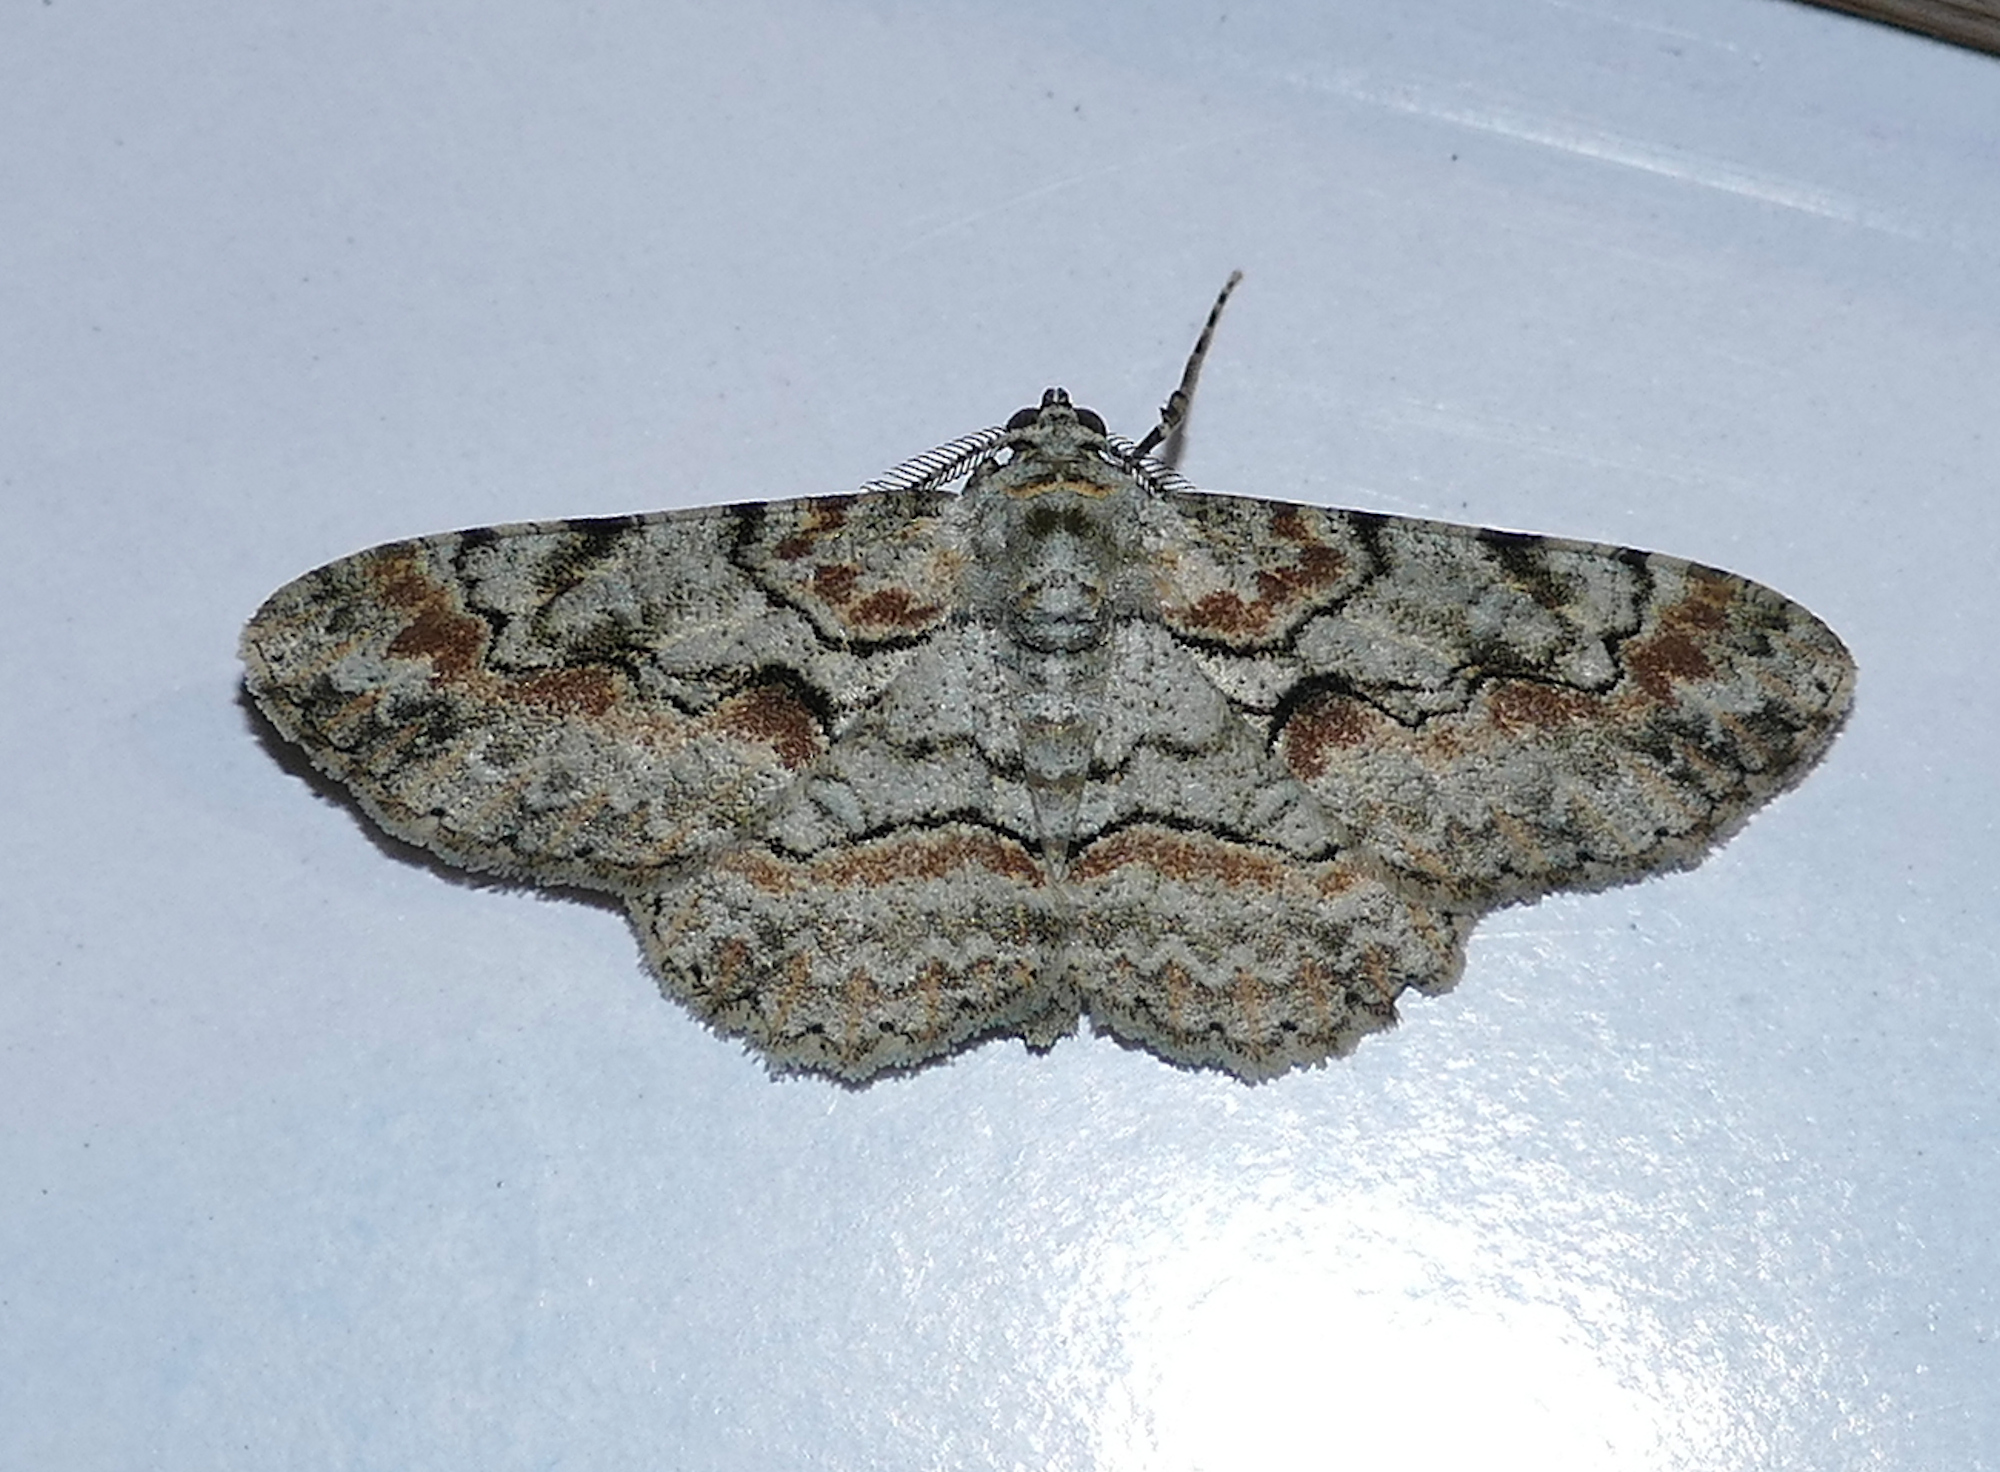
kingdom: Animalia
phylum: Arthropoda
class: Insecta
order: Lepidoptera
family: Geometridae
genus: Iridopsis
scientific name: Iridopsis defectaria
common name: Brown-shaded gray
